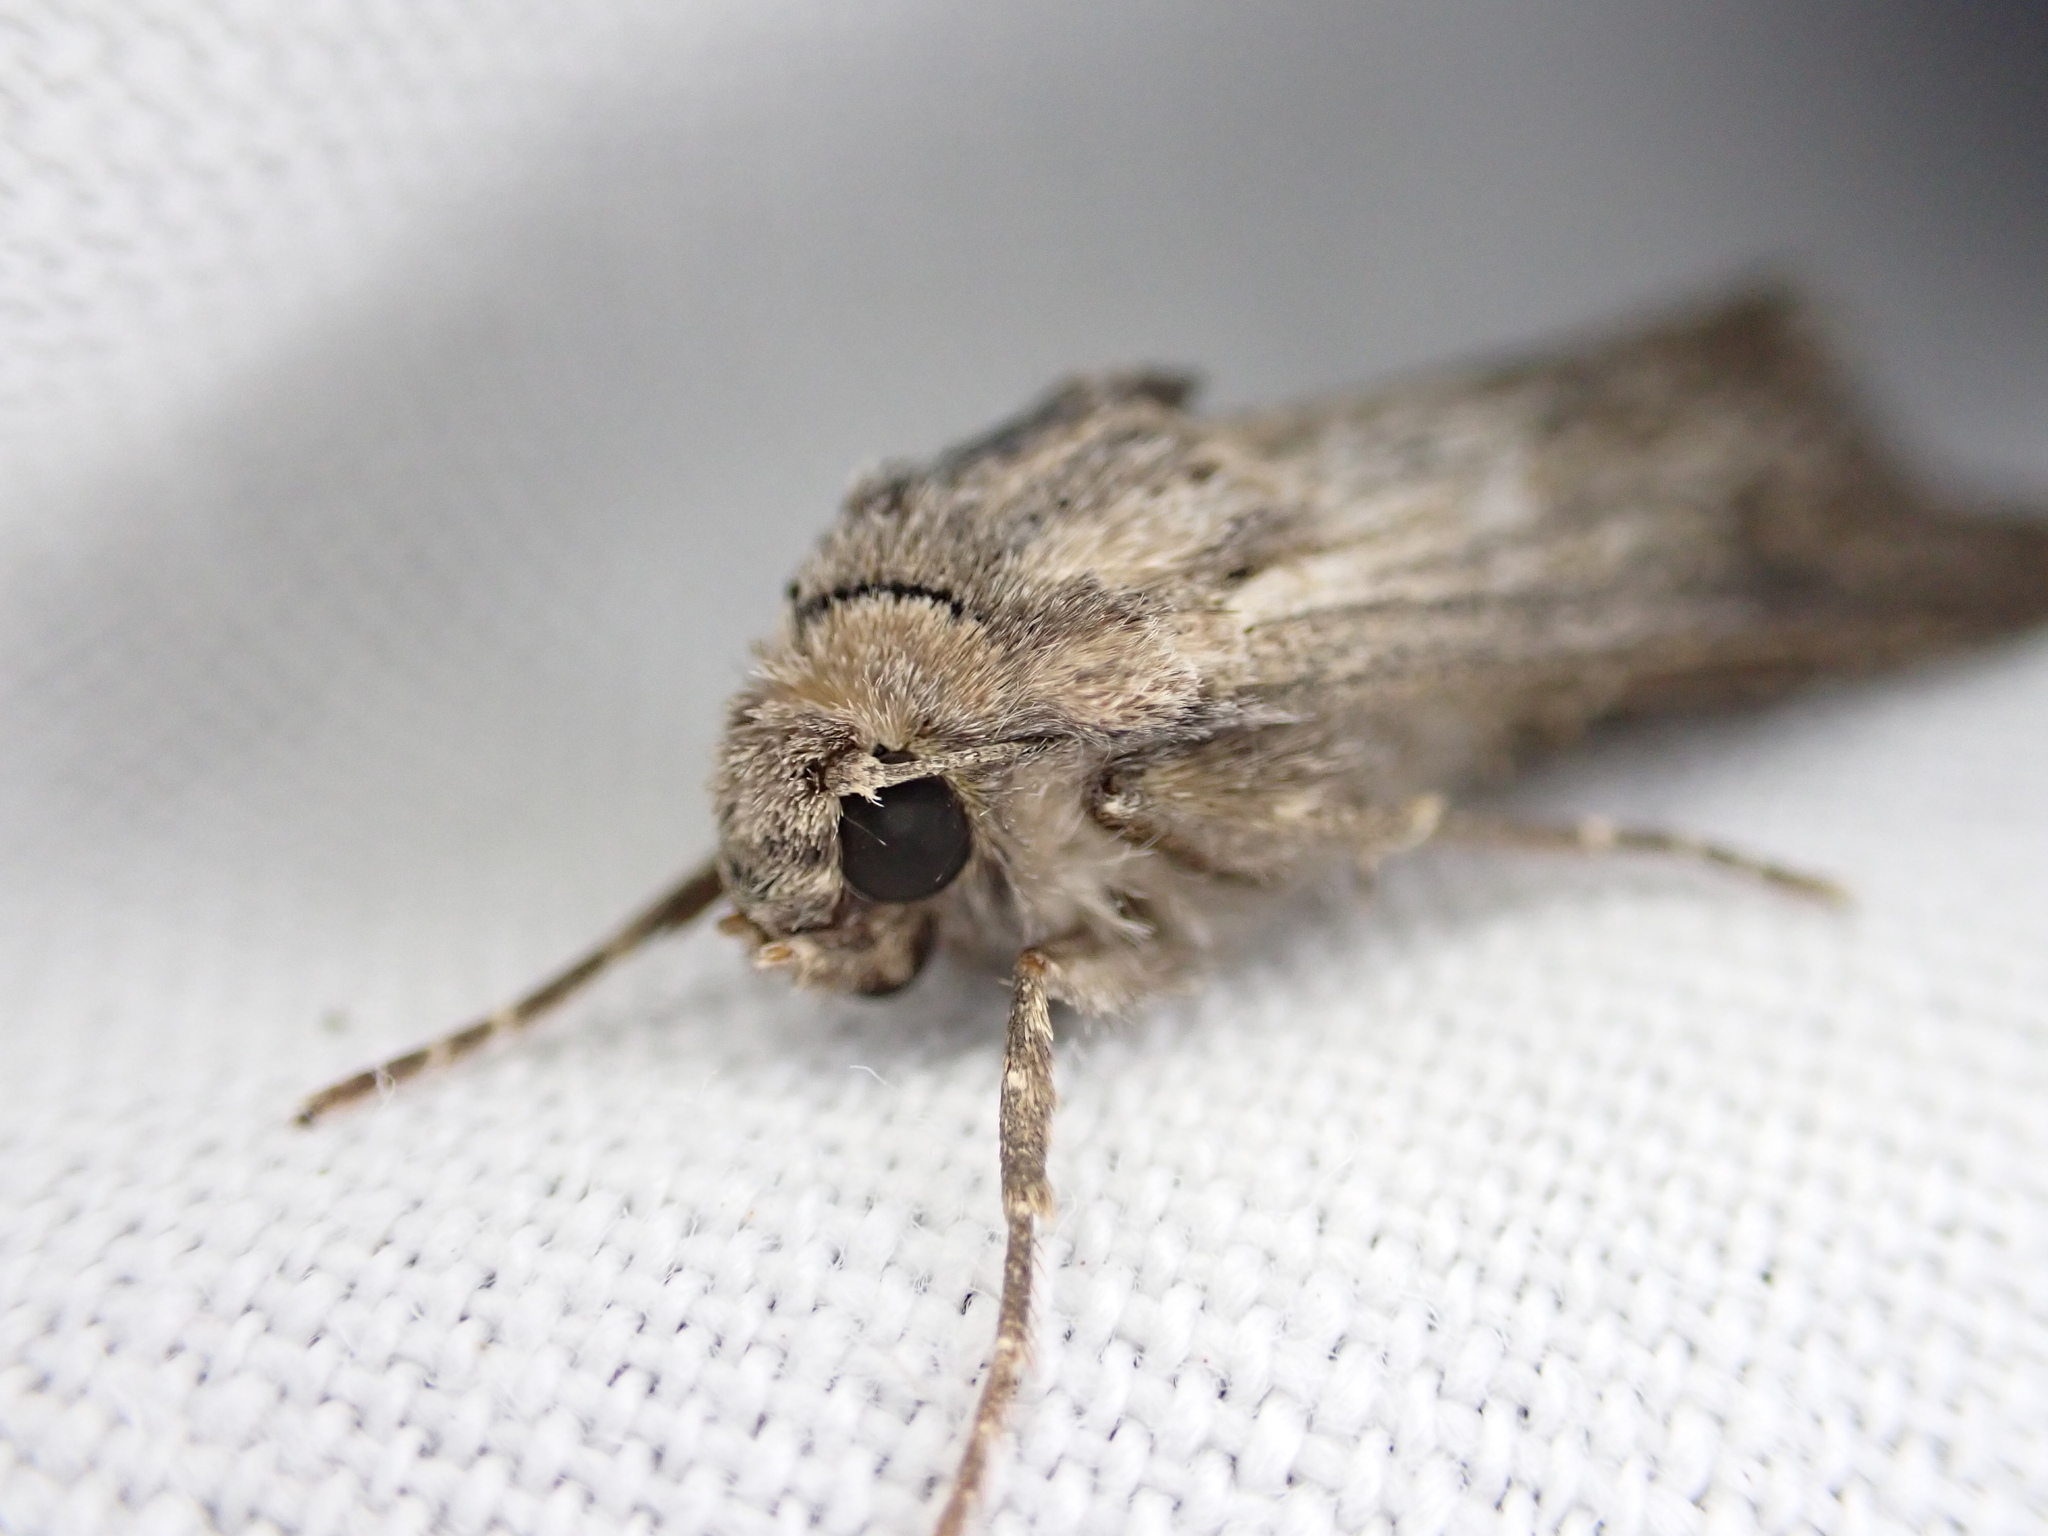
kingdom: Animalia
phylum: Arthropoda
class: Insecta
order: Lepidoptera
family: Noctuidae
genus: Aporophyla
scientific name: Aporophyla australis
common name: Feathered brindle
